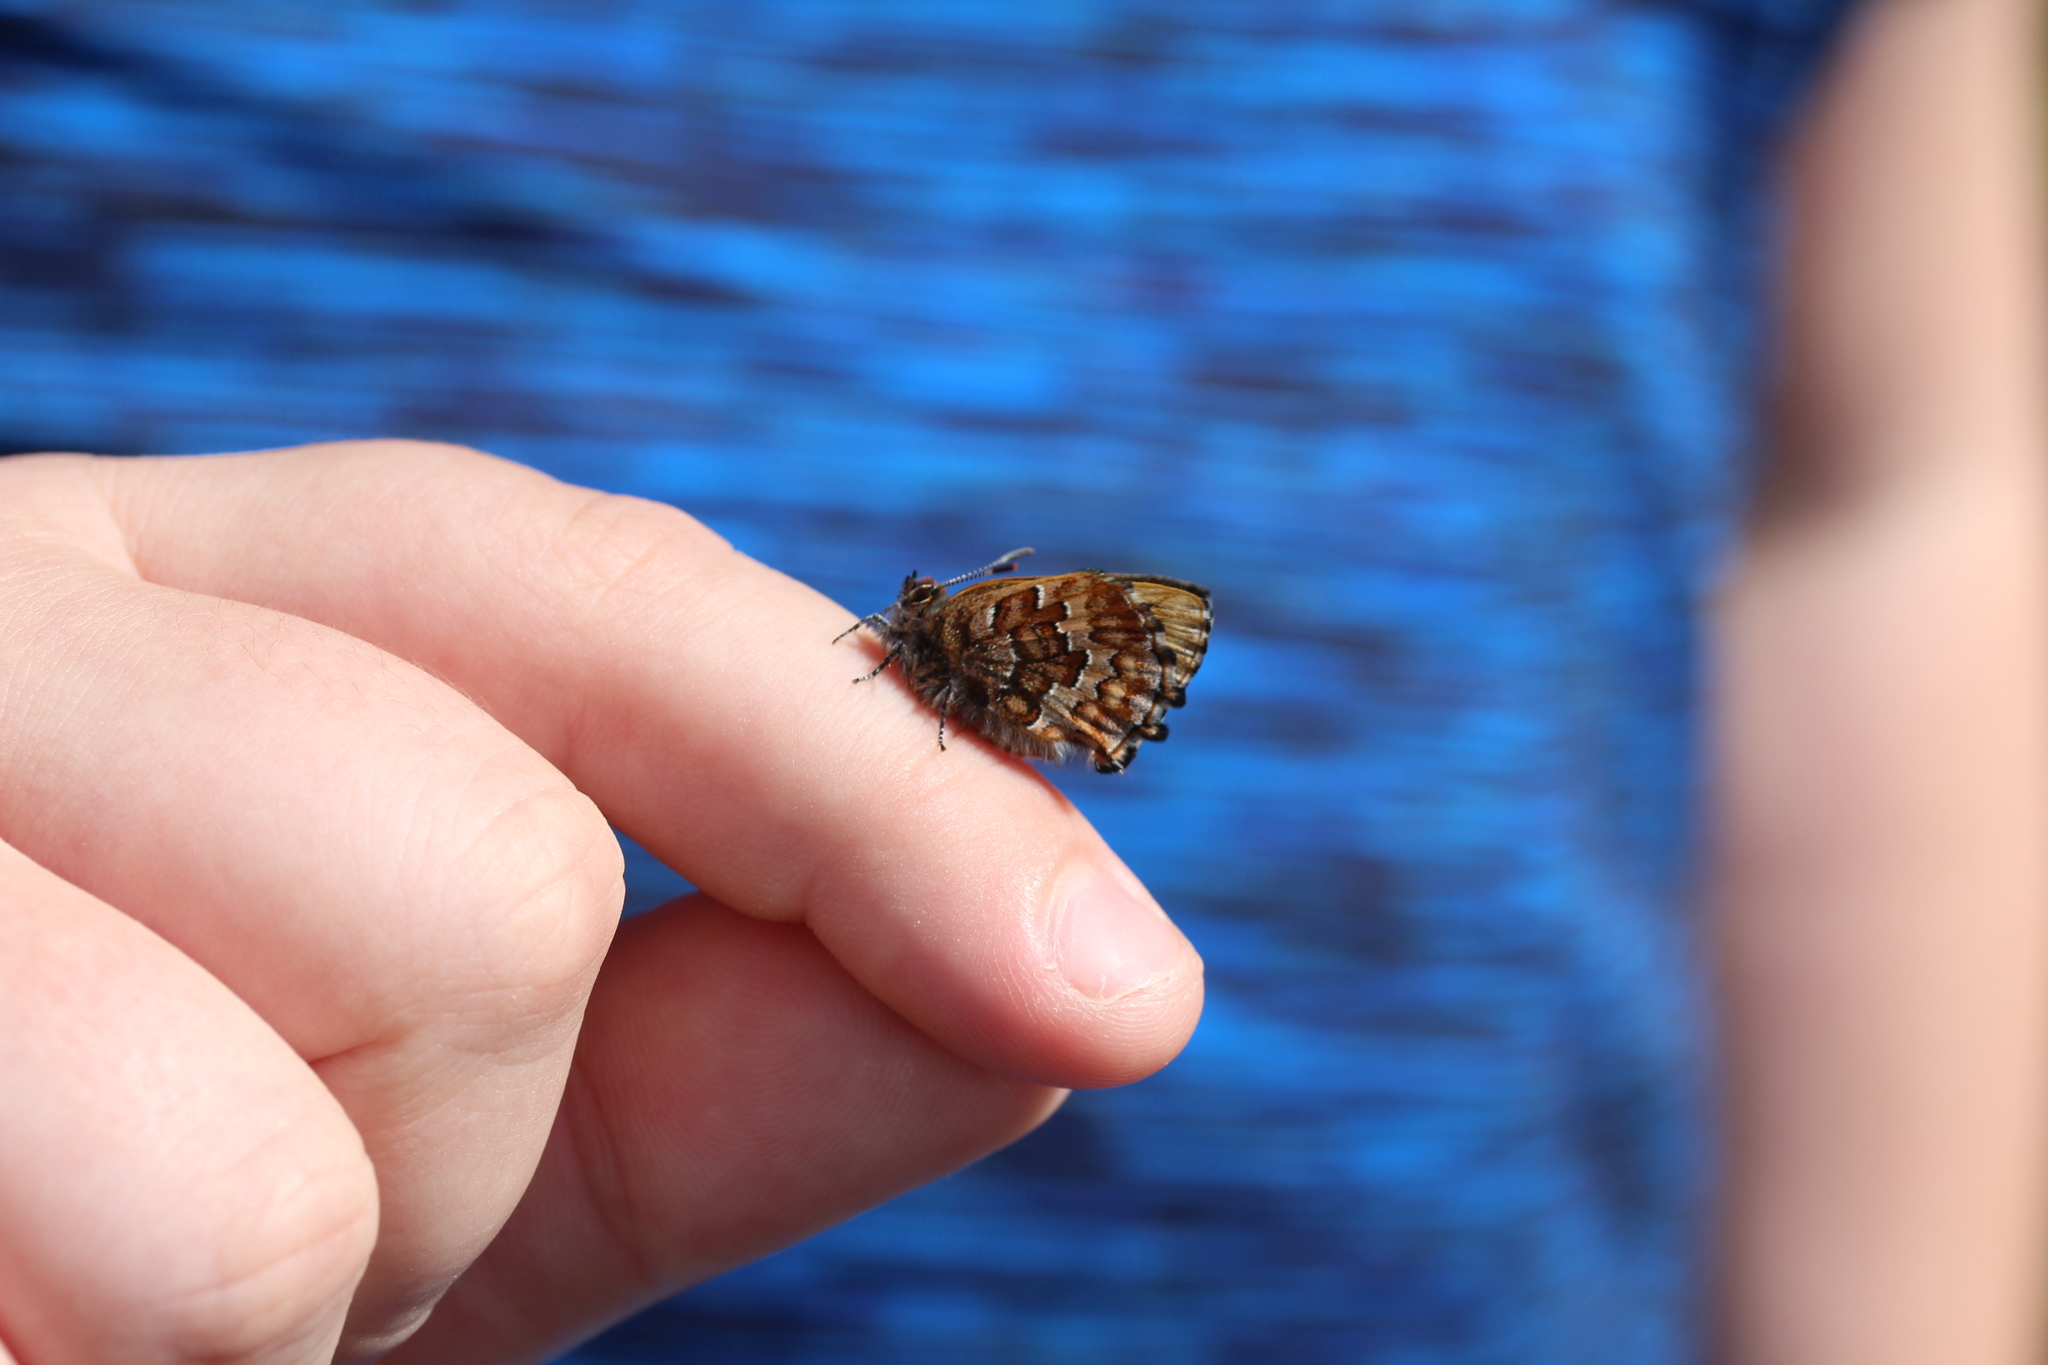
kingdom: Animalia
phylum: Arthropoda
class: Insecta
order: Lepidoptera
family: Lycaenidae
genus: Incisalia
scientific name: Incisalia niphon
